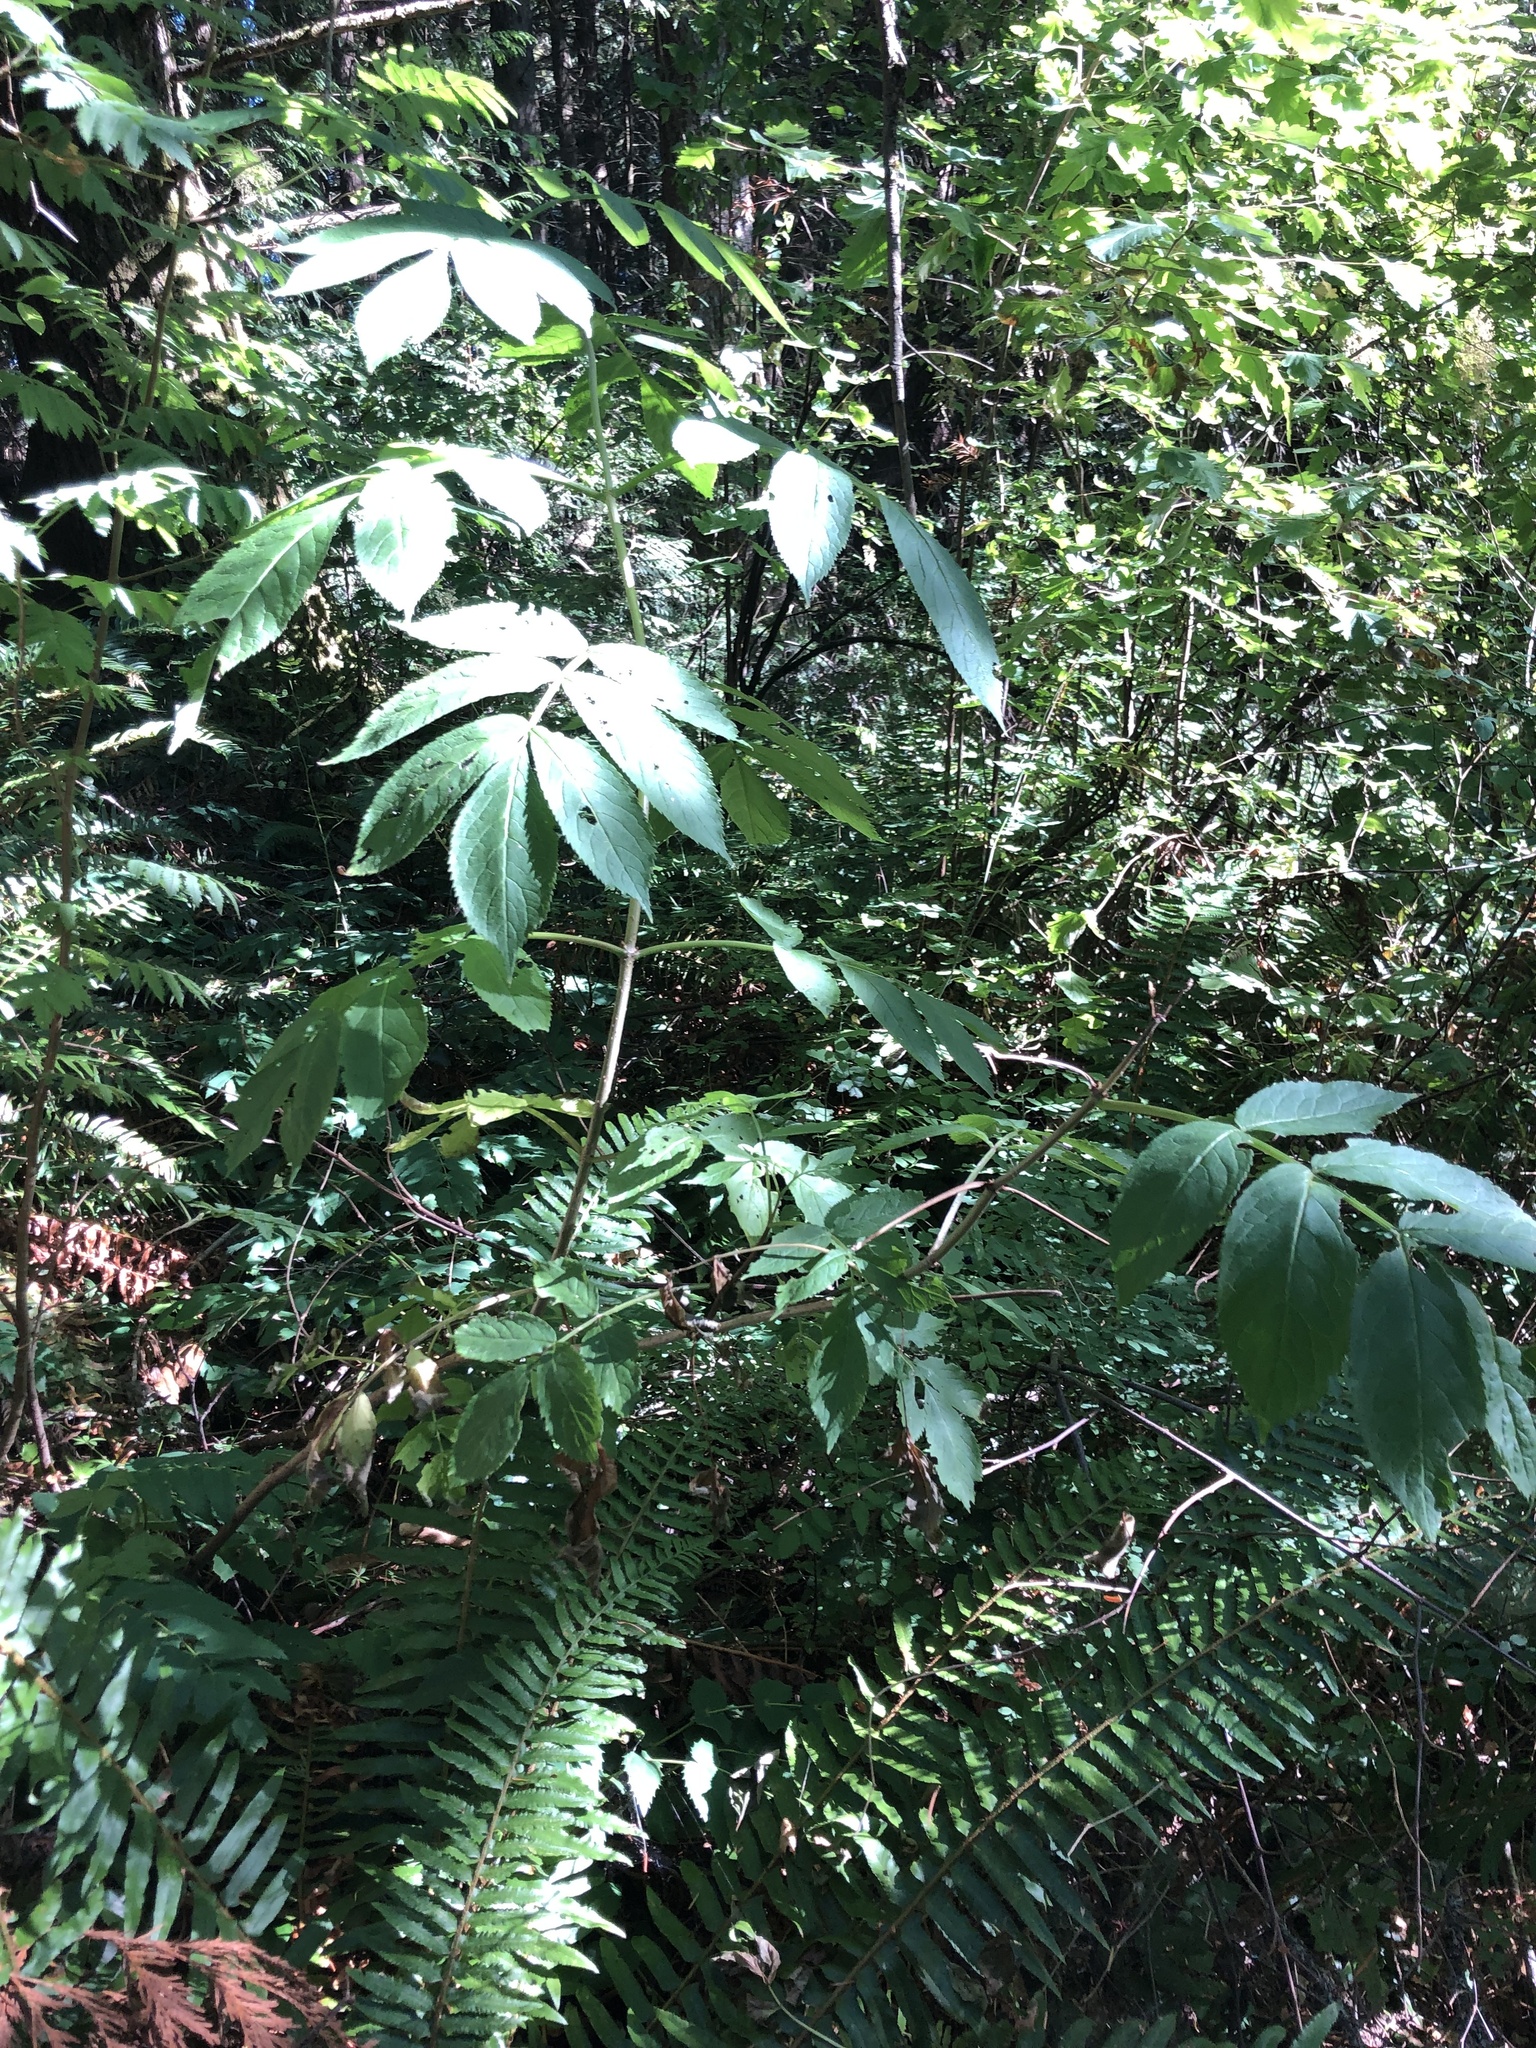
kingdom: Plantae
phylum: Tracheophyta
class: Magnoliopsida
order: Dipsacales
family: Viburnaceae
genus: Sambucus
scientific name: Sambucus racemosa
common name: Red-berried elder
